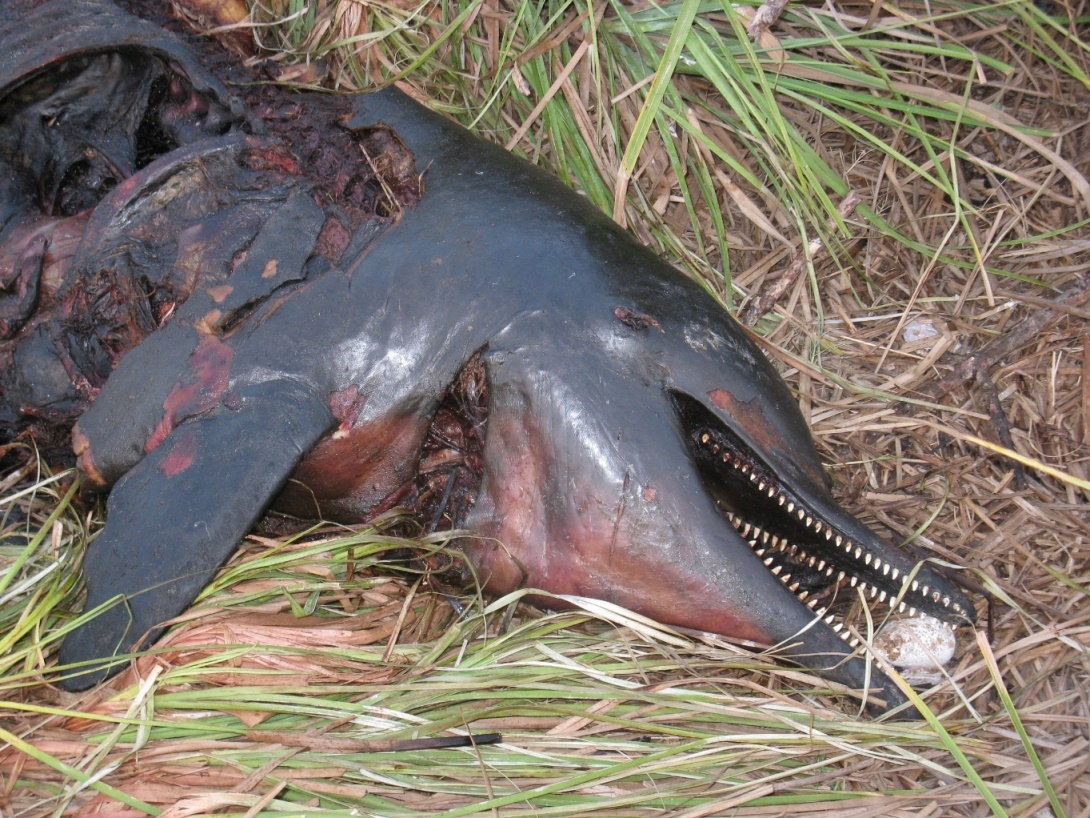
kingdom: Animalia
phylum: Chordata
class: Mammalia
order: Cetacea
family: Delphinidae
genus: Sousa
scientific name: Sousa teuszii
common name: Atlantic humpbacked dolphin
